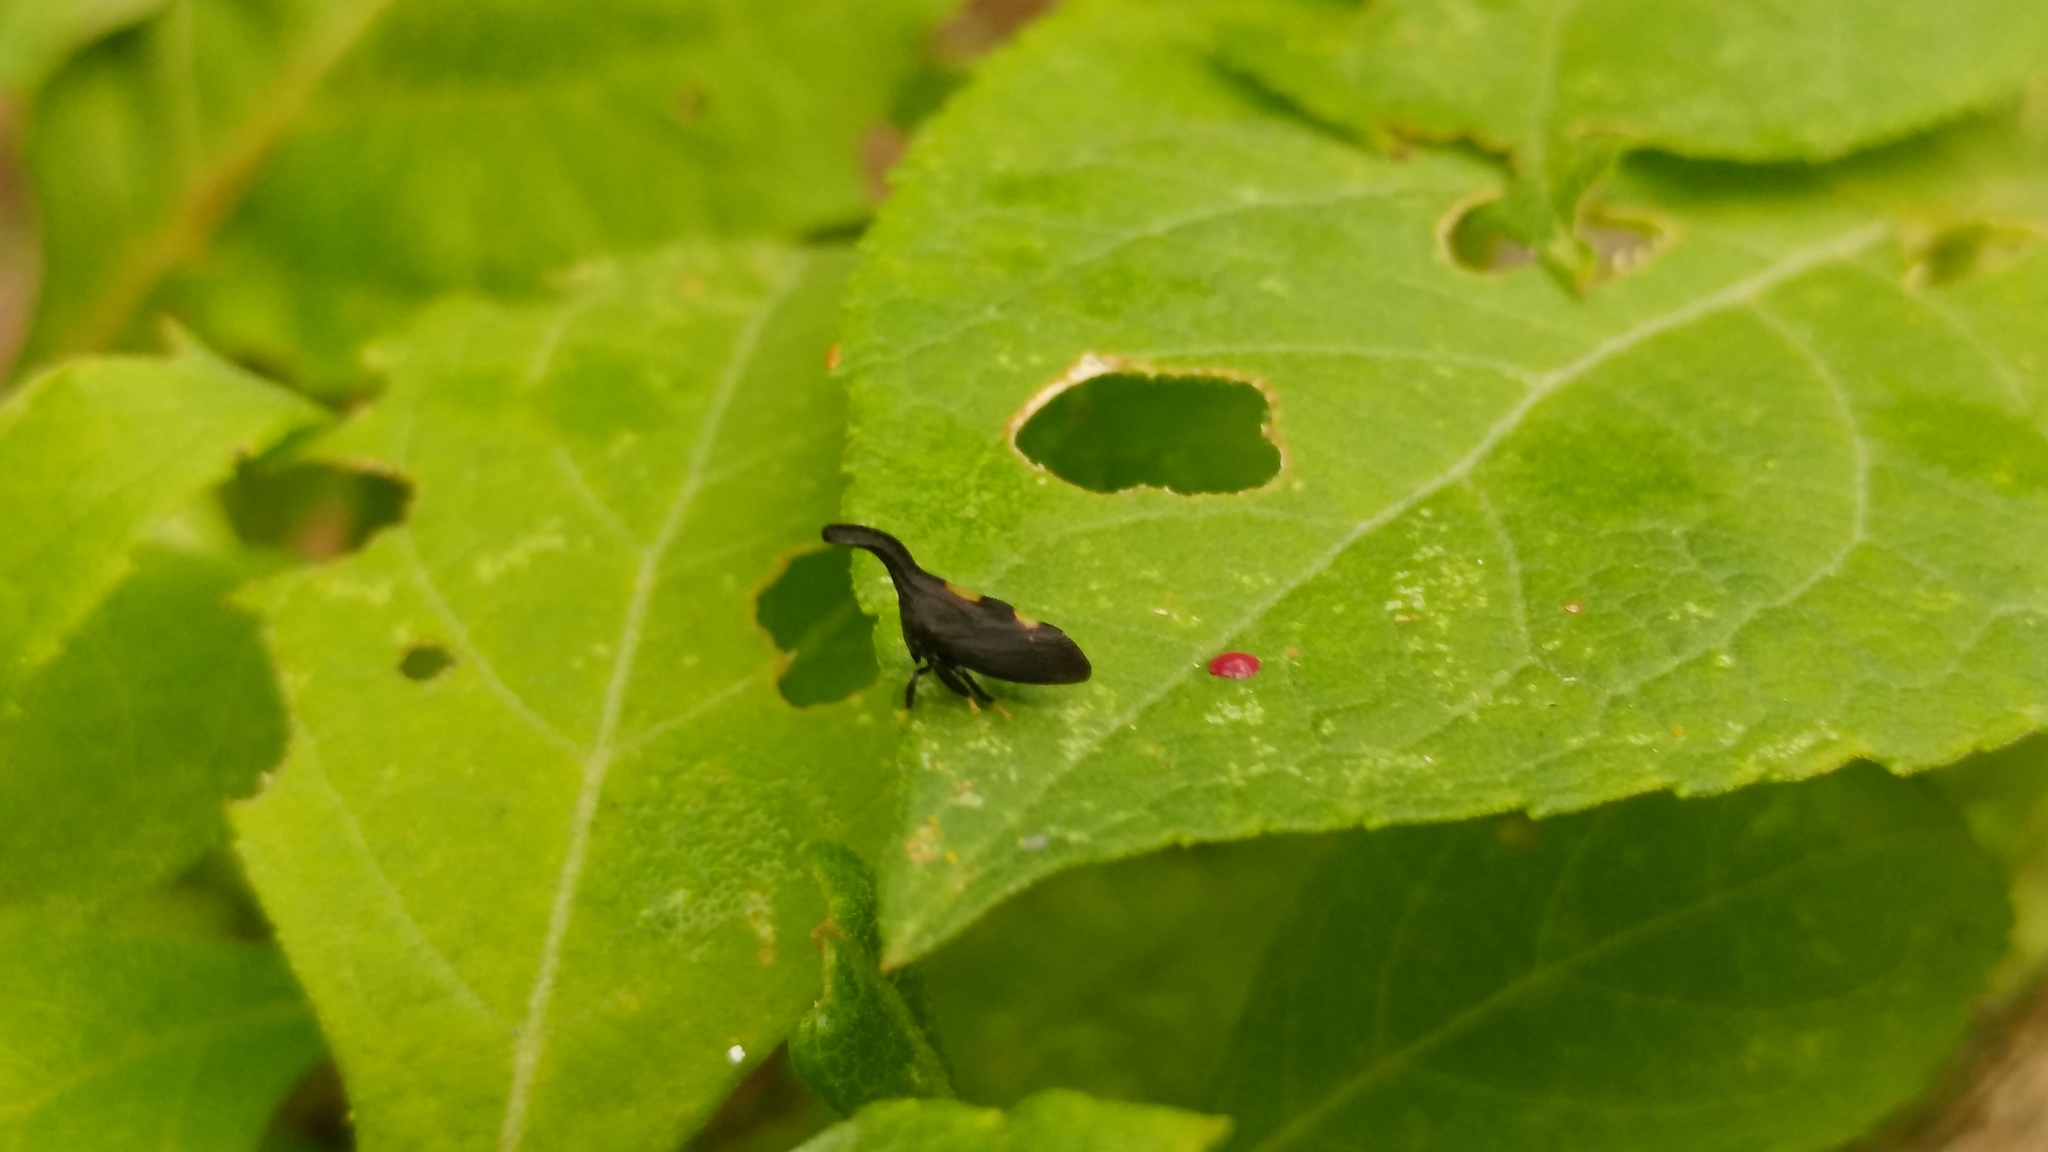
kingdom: Animalia
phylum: Arthropoda
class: Insecta
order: Hemiptera
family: Membracidae
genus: Enchenopa
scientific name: Enchenopa
